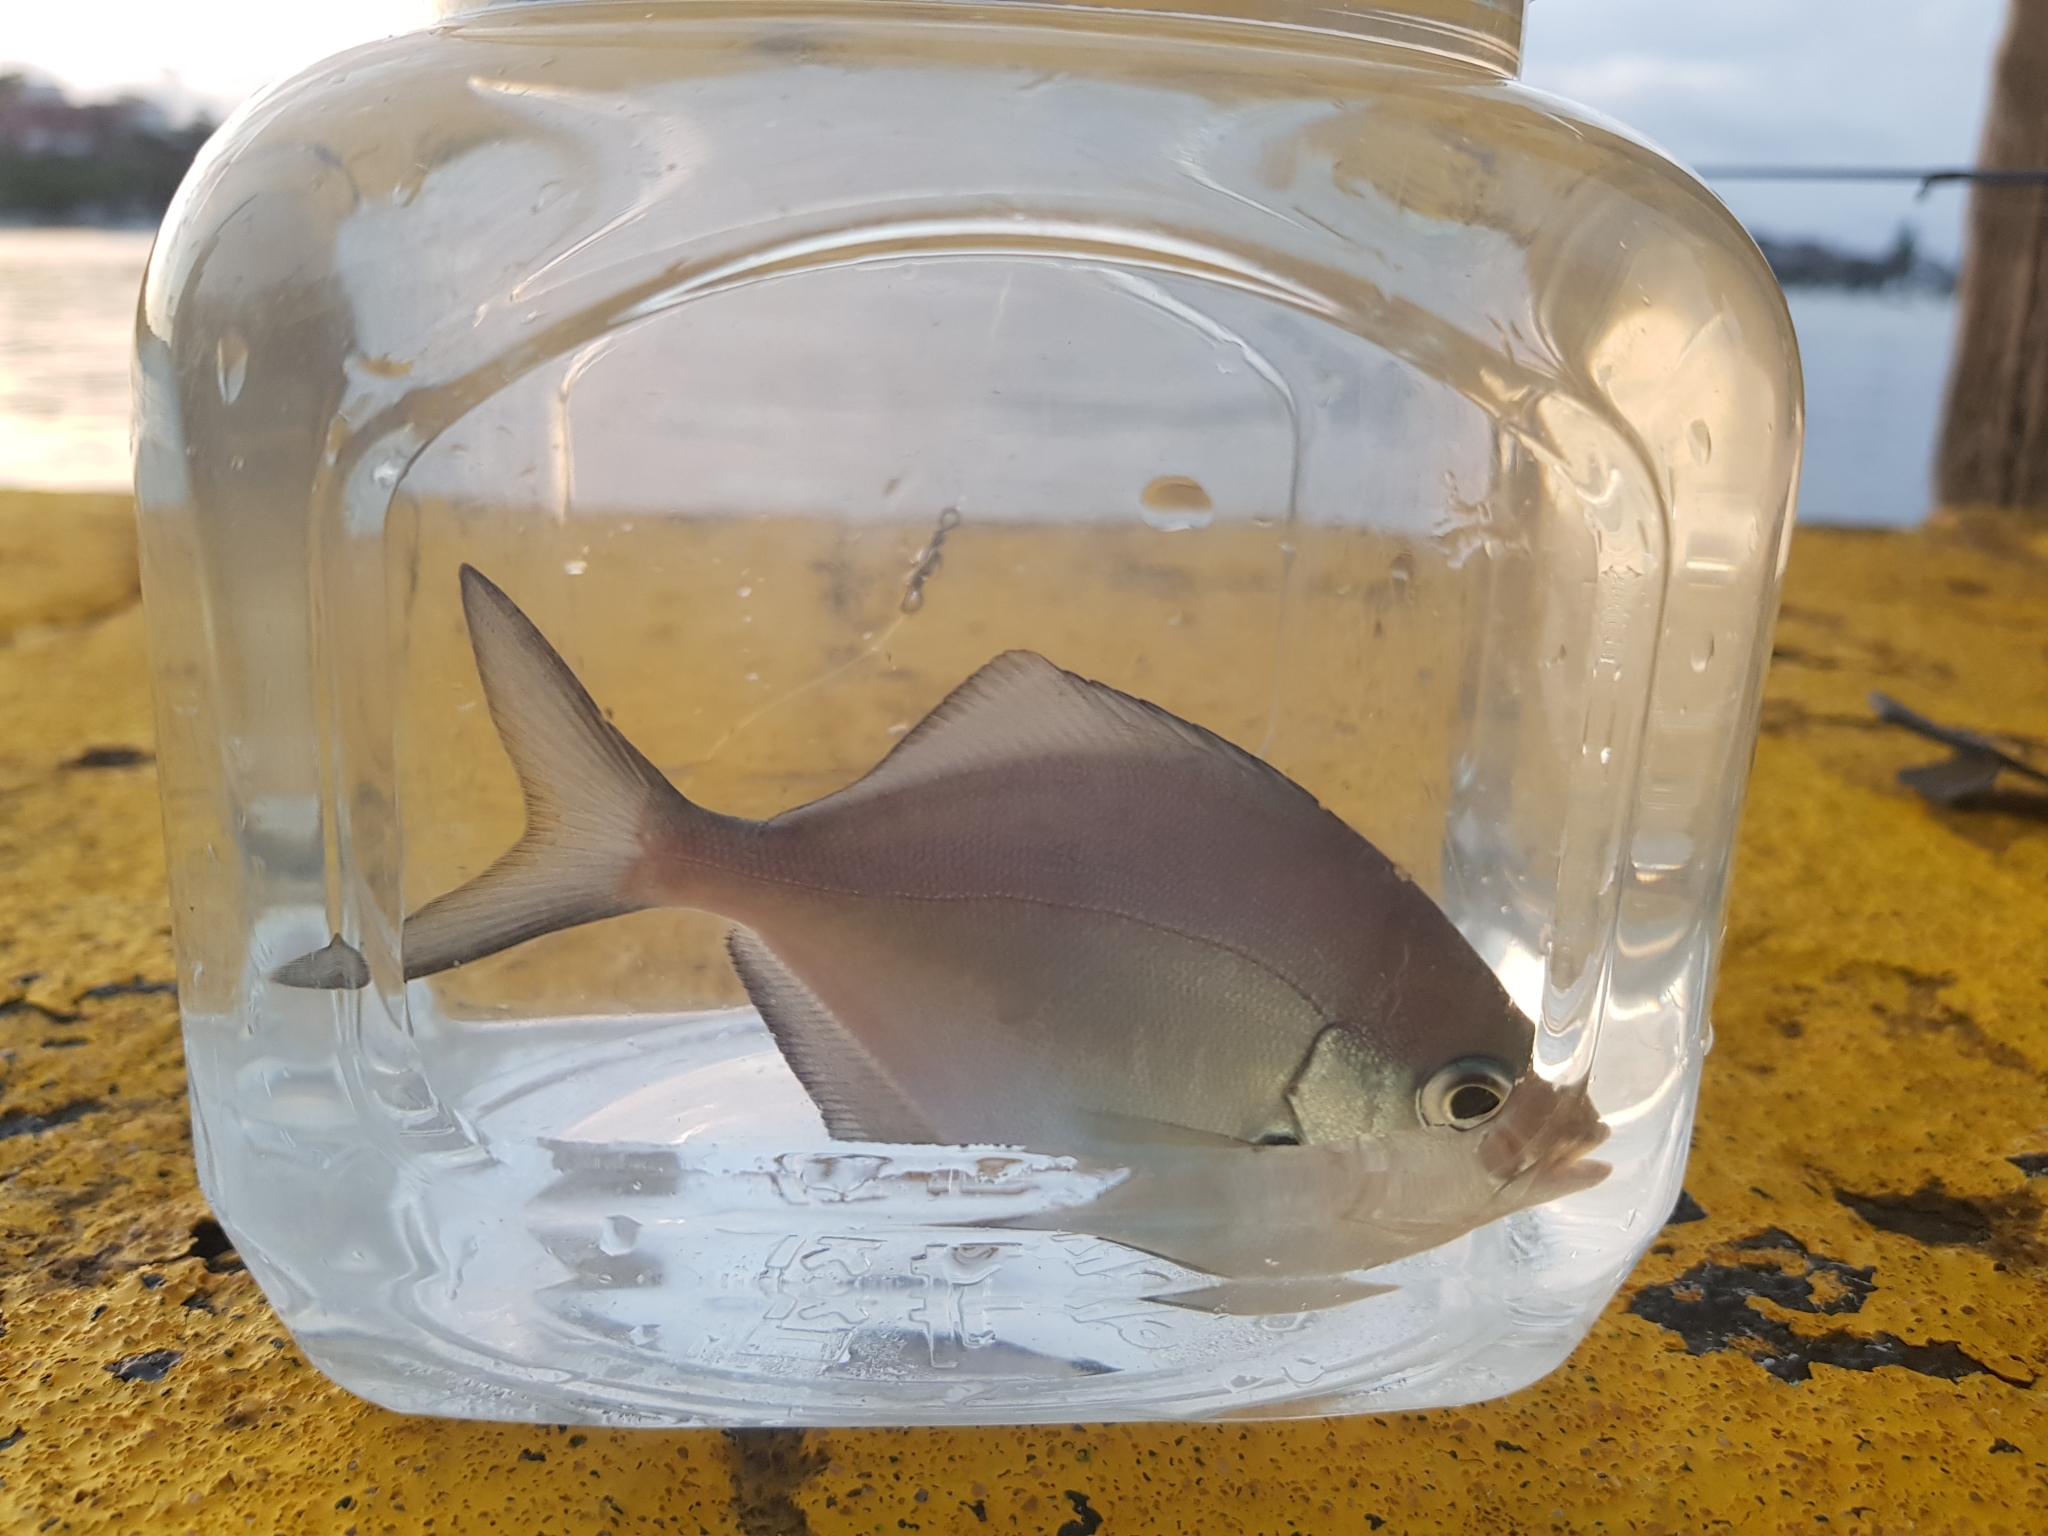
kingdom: Animalia
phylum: Chordata
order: Perciformes
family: Kyphosidae
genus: Scorpis
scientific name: Scorpis lineolata
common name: Sweep
